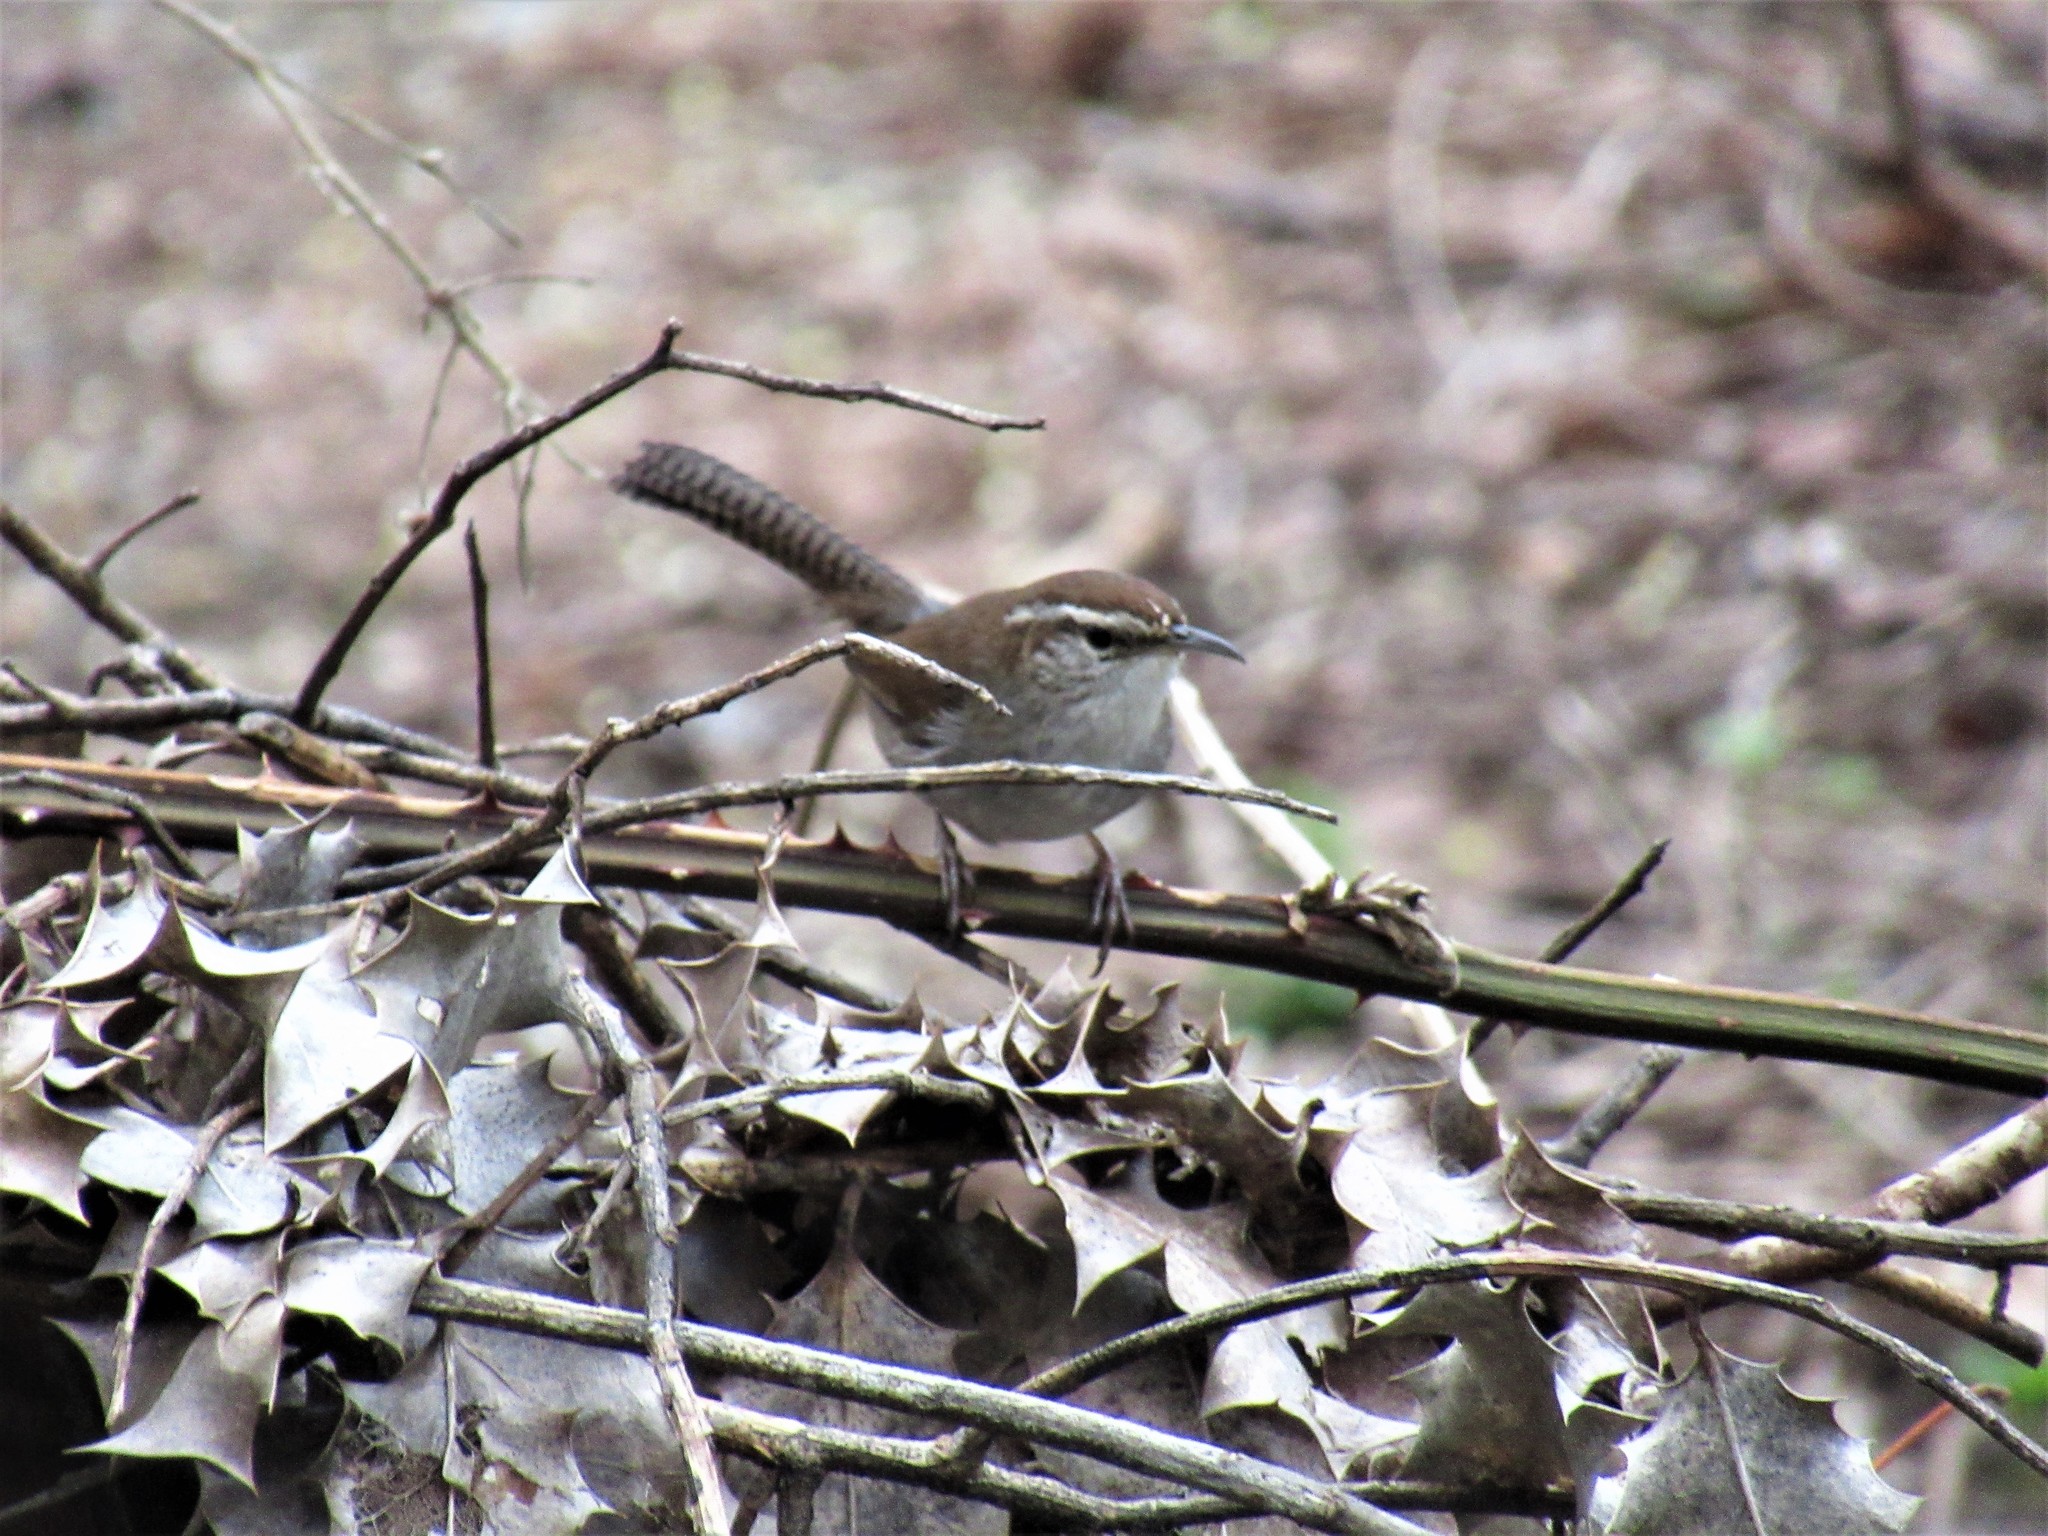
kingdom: Animalia
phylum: Chordata
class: Aves
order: Passeriformes
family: Troglodytidae
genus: Thryomanes
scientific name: Thryomanes bewickii
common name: Bewick's wren
